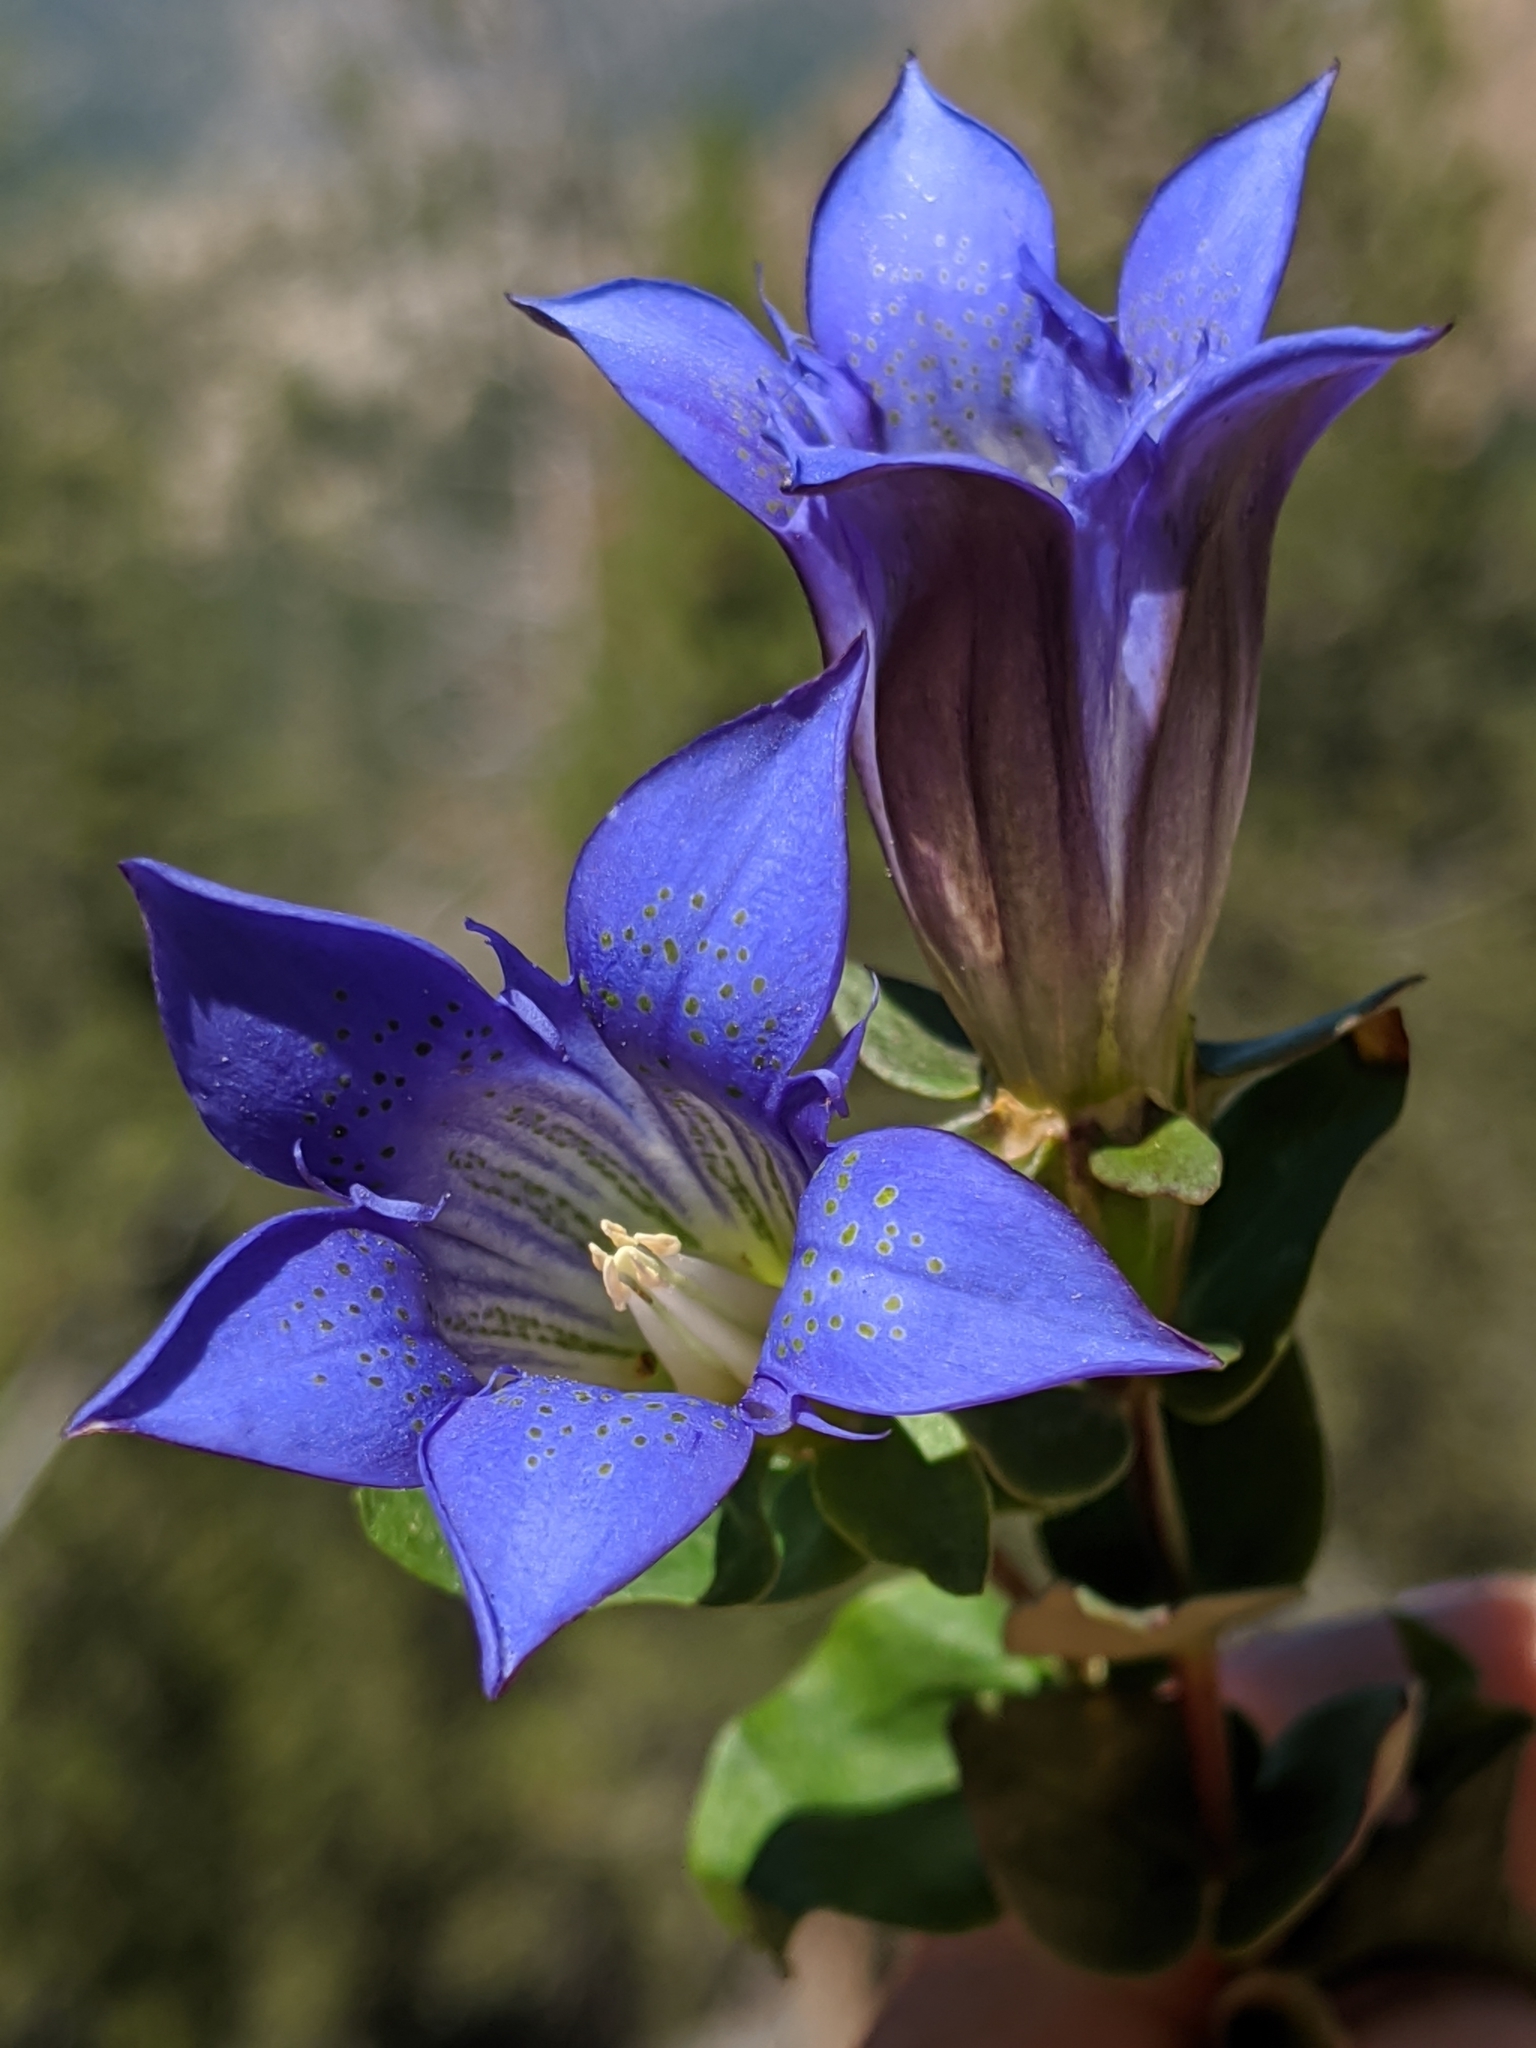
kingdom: Plantae
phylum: Tracheophyta
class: Magnoliopsida
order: Gentianales
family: Gentianaceae
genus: Gentiana
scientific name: Gentiana calycosa
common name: Rainier pleated gentian
